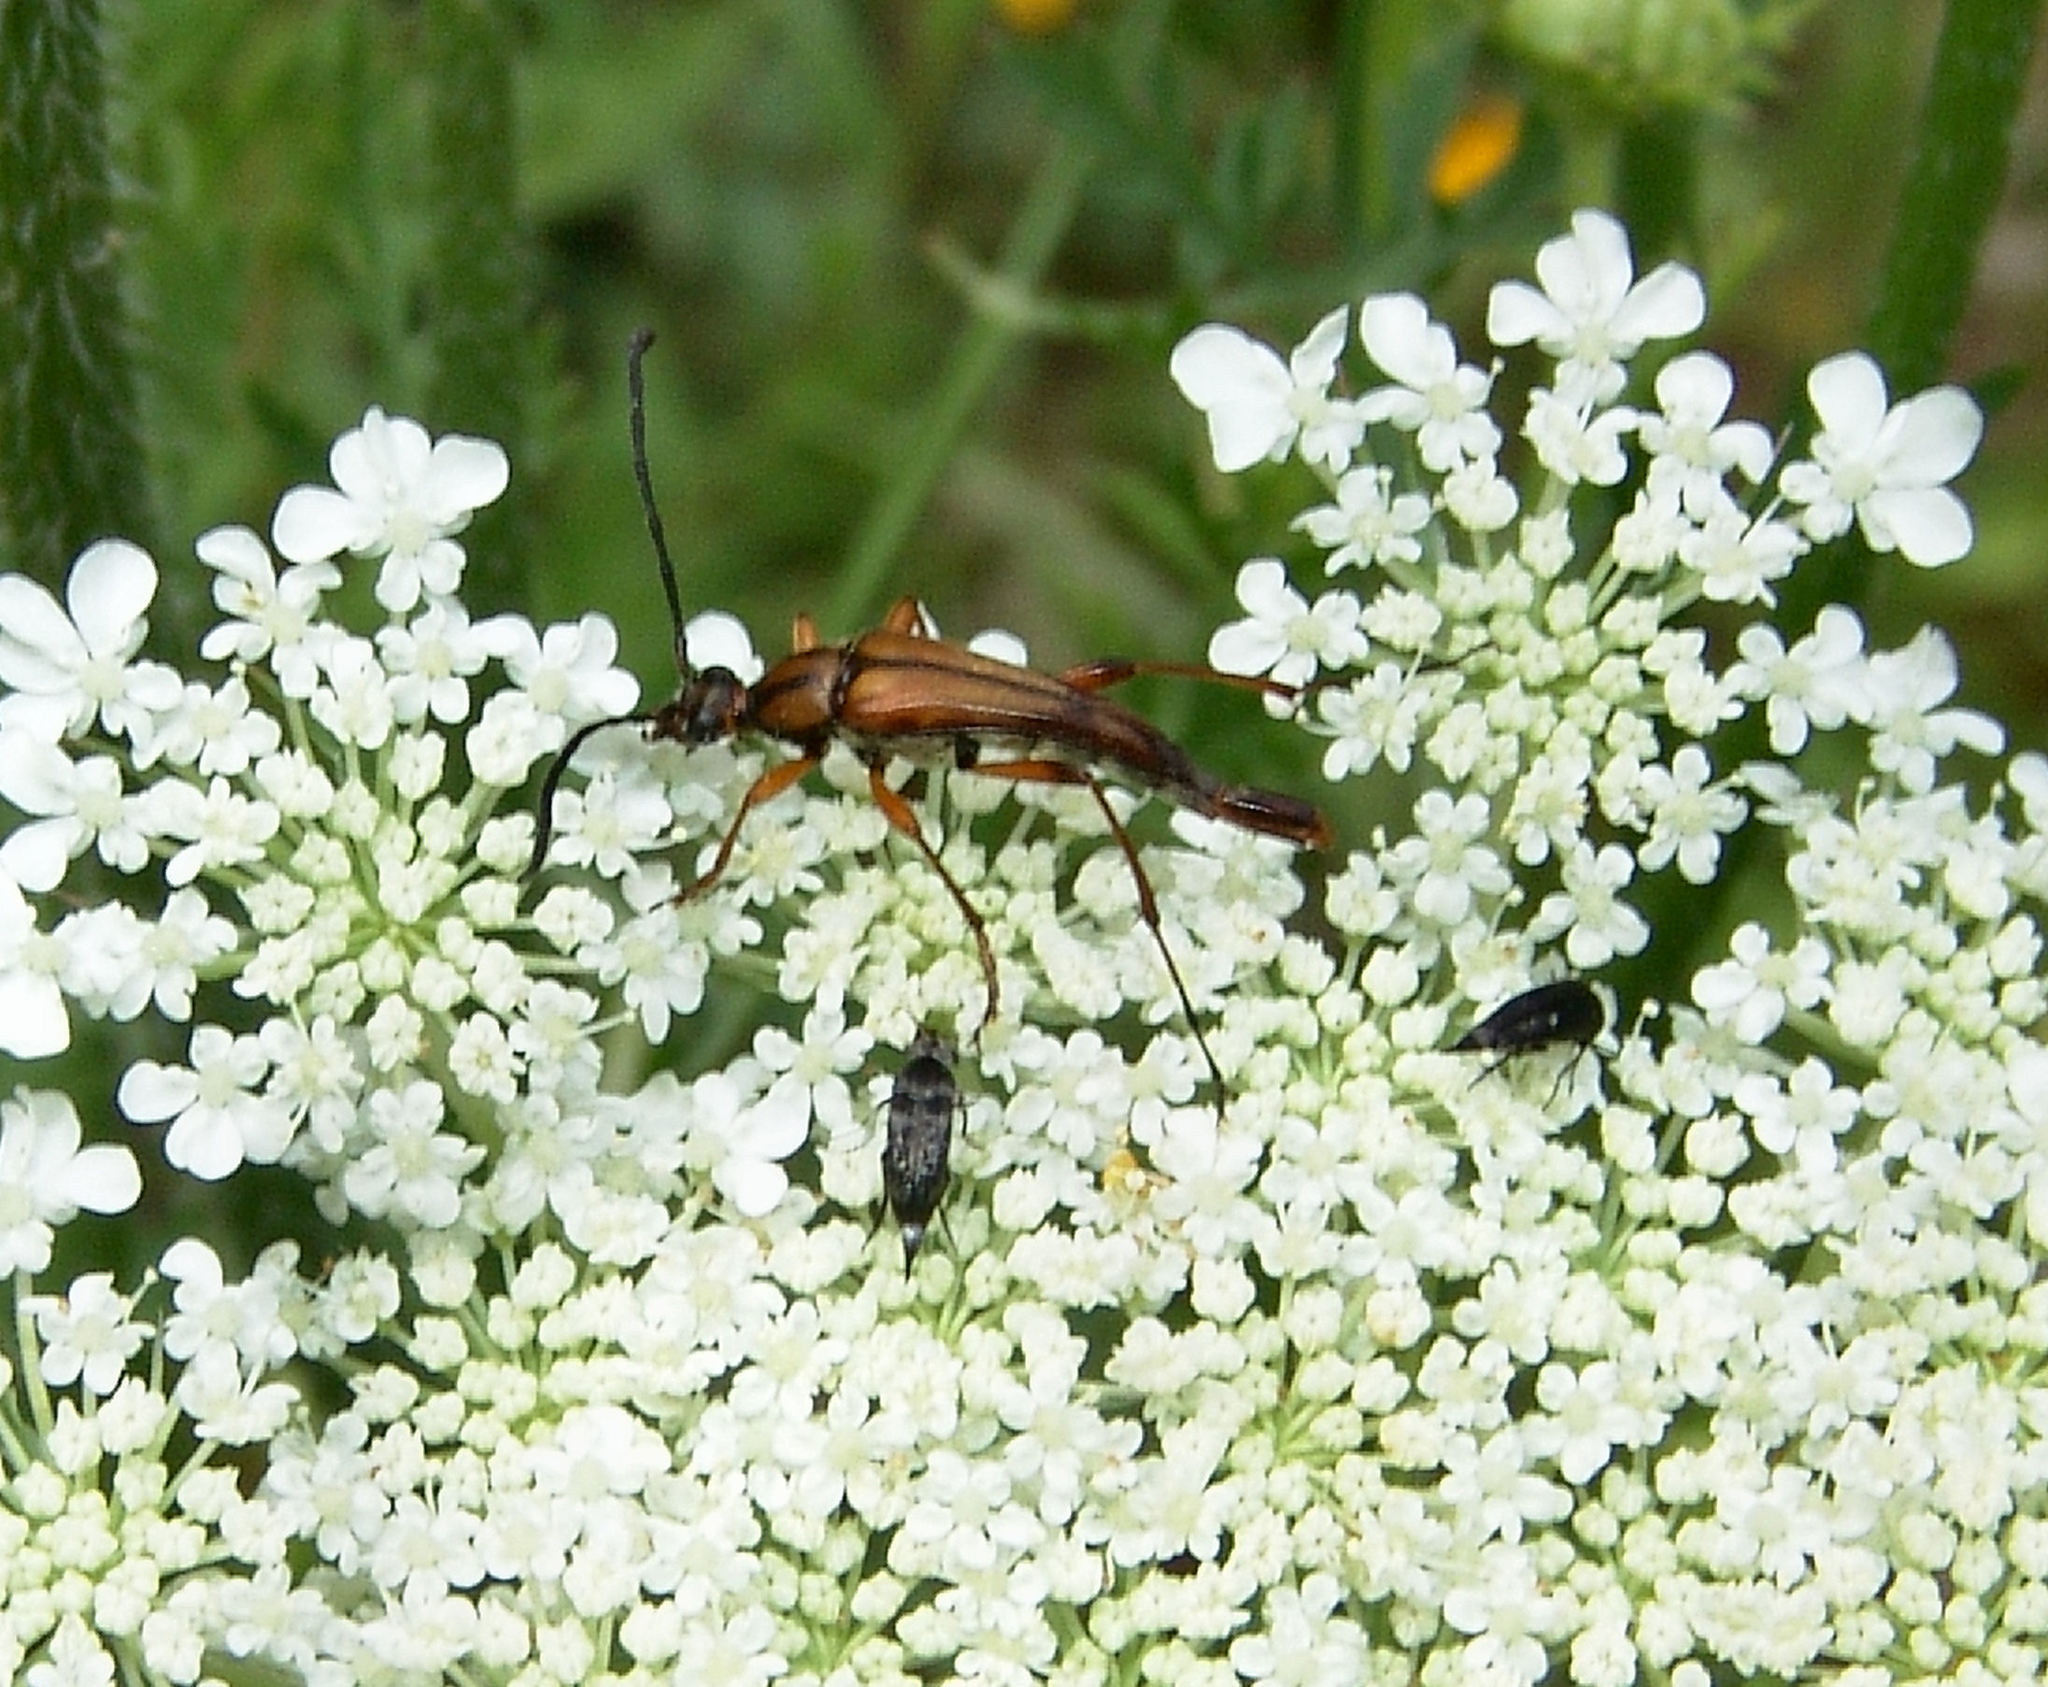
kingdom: Animalia
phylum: Arthropoda
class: Insecta
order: Coleoptera
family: Cerambycidae
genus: Strangalia
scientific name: Strangalia famelica
